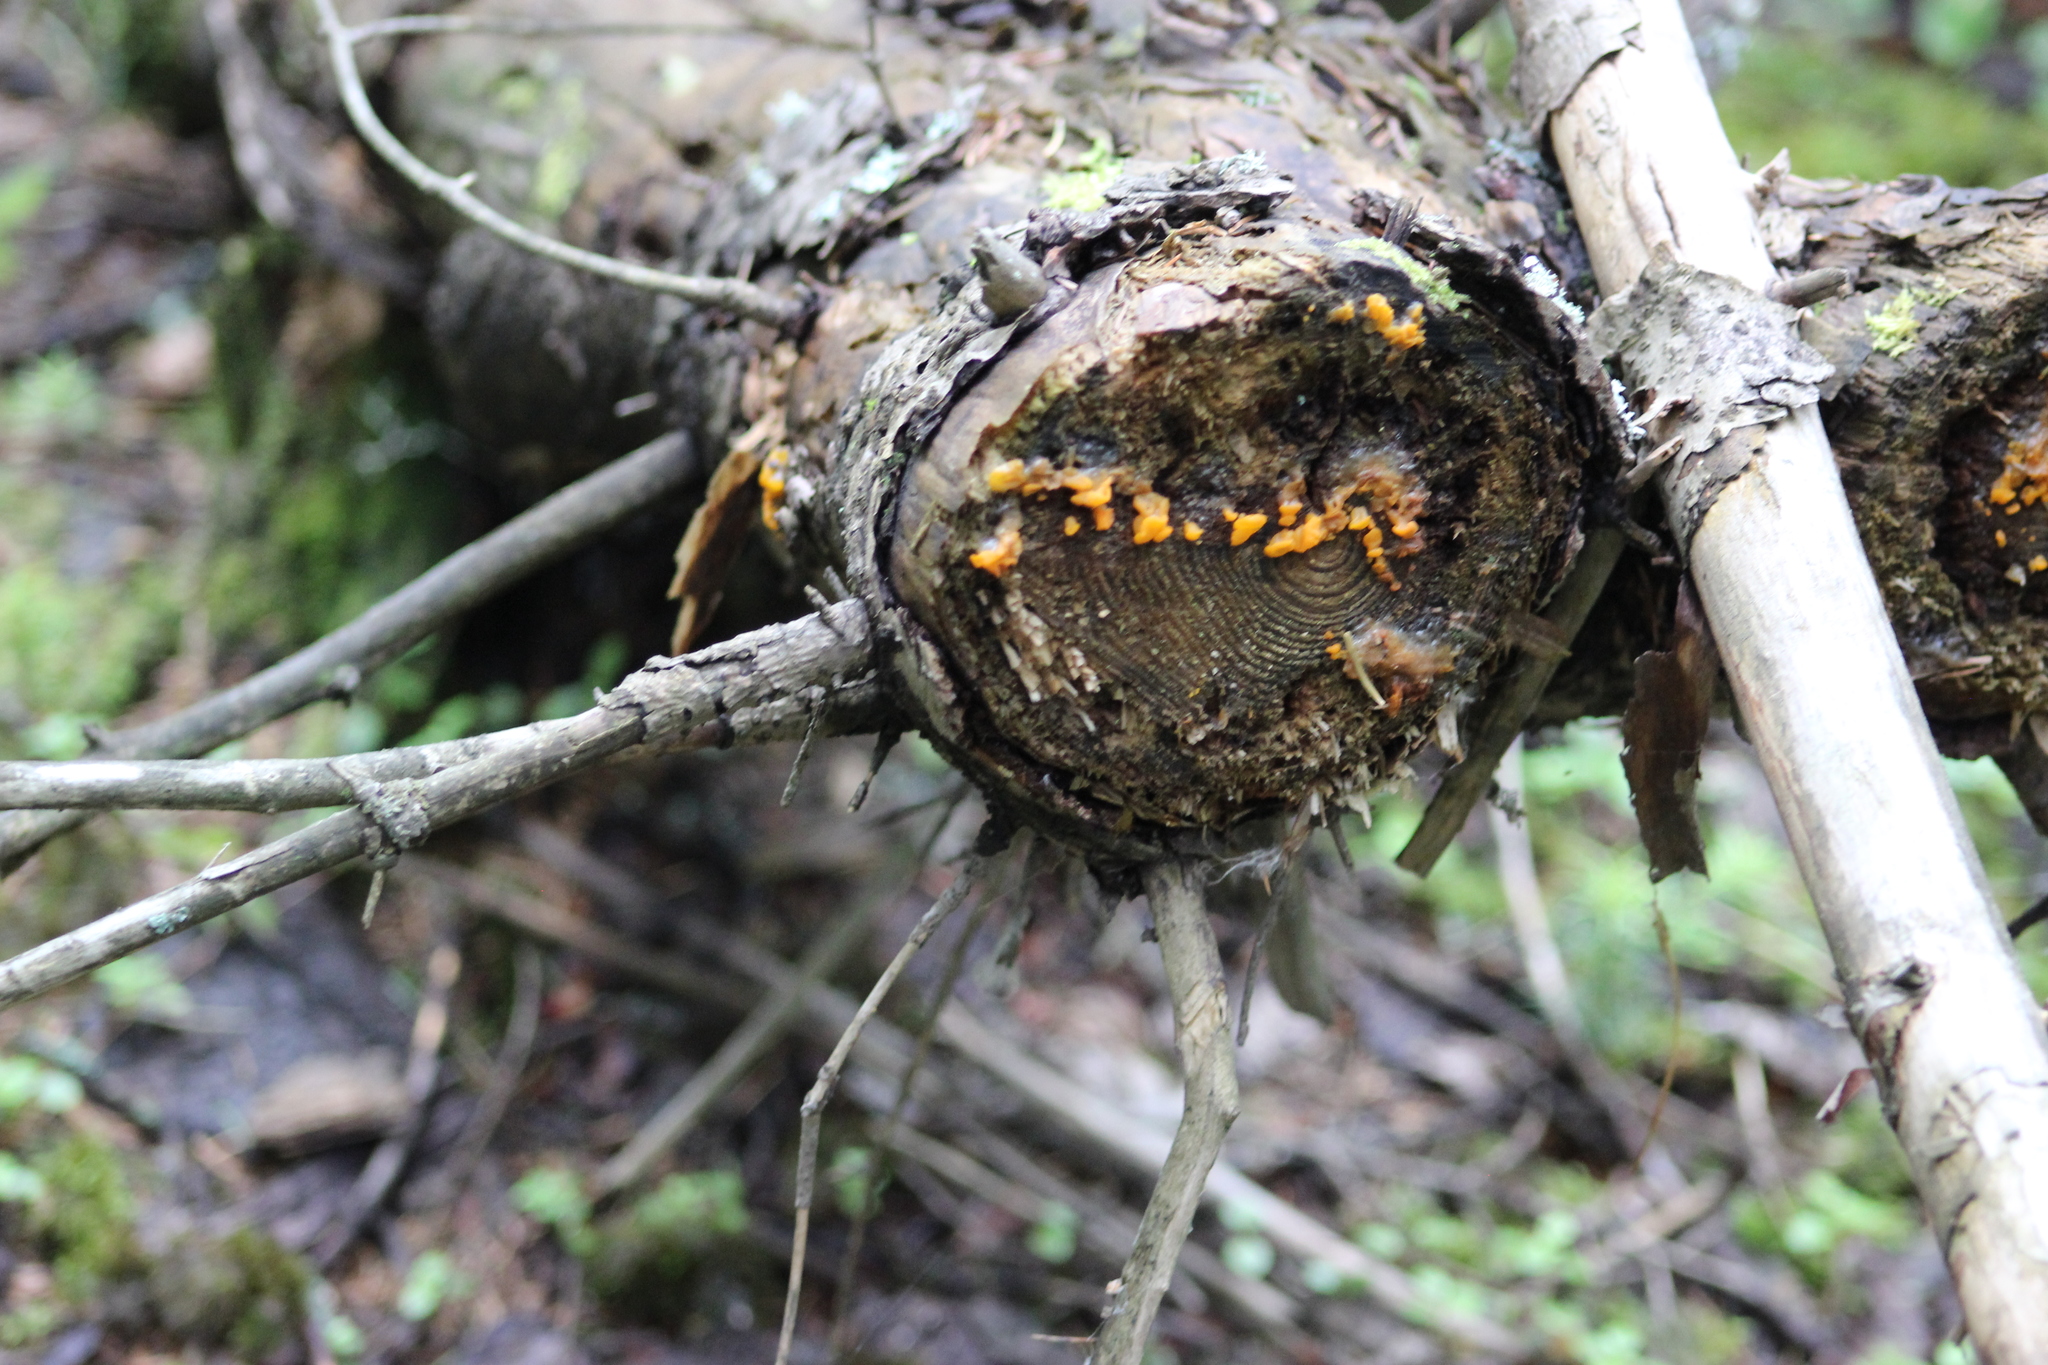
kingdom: Fungi
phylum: Basidiomycota
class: Dacrymycetes
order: Dacrymycetales
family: Dacrymycetaceae
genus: Dacrymyces
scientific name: Dacrymyces chrysospermus
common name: Orange jelly spot
